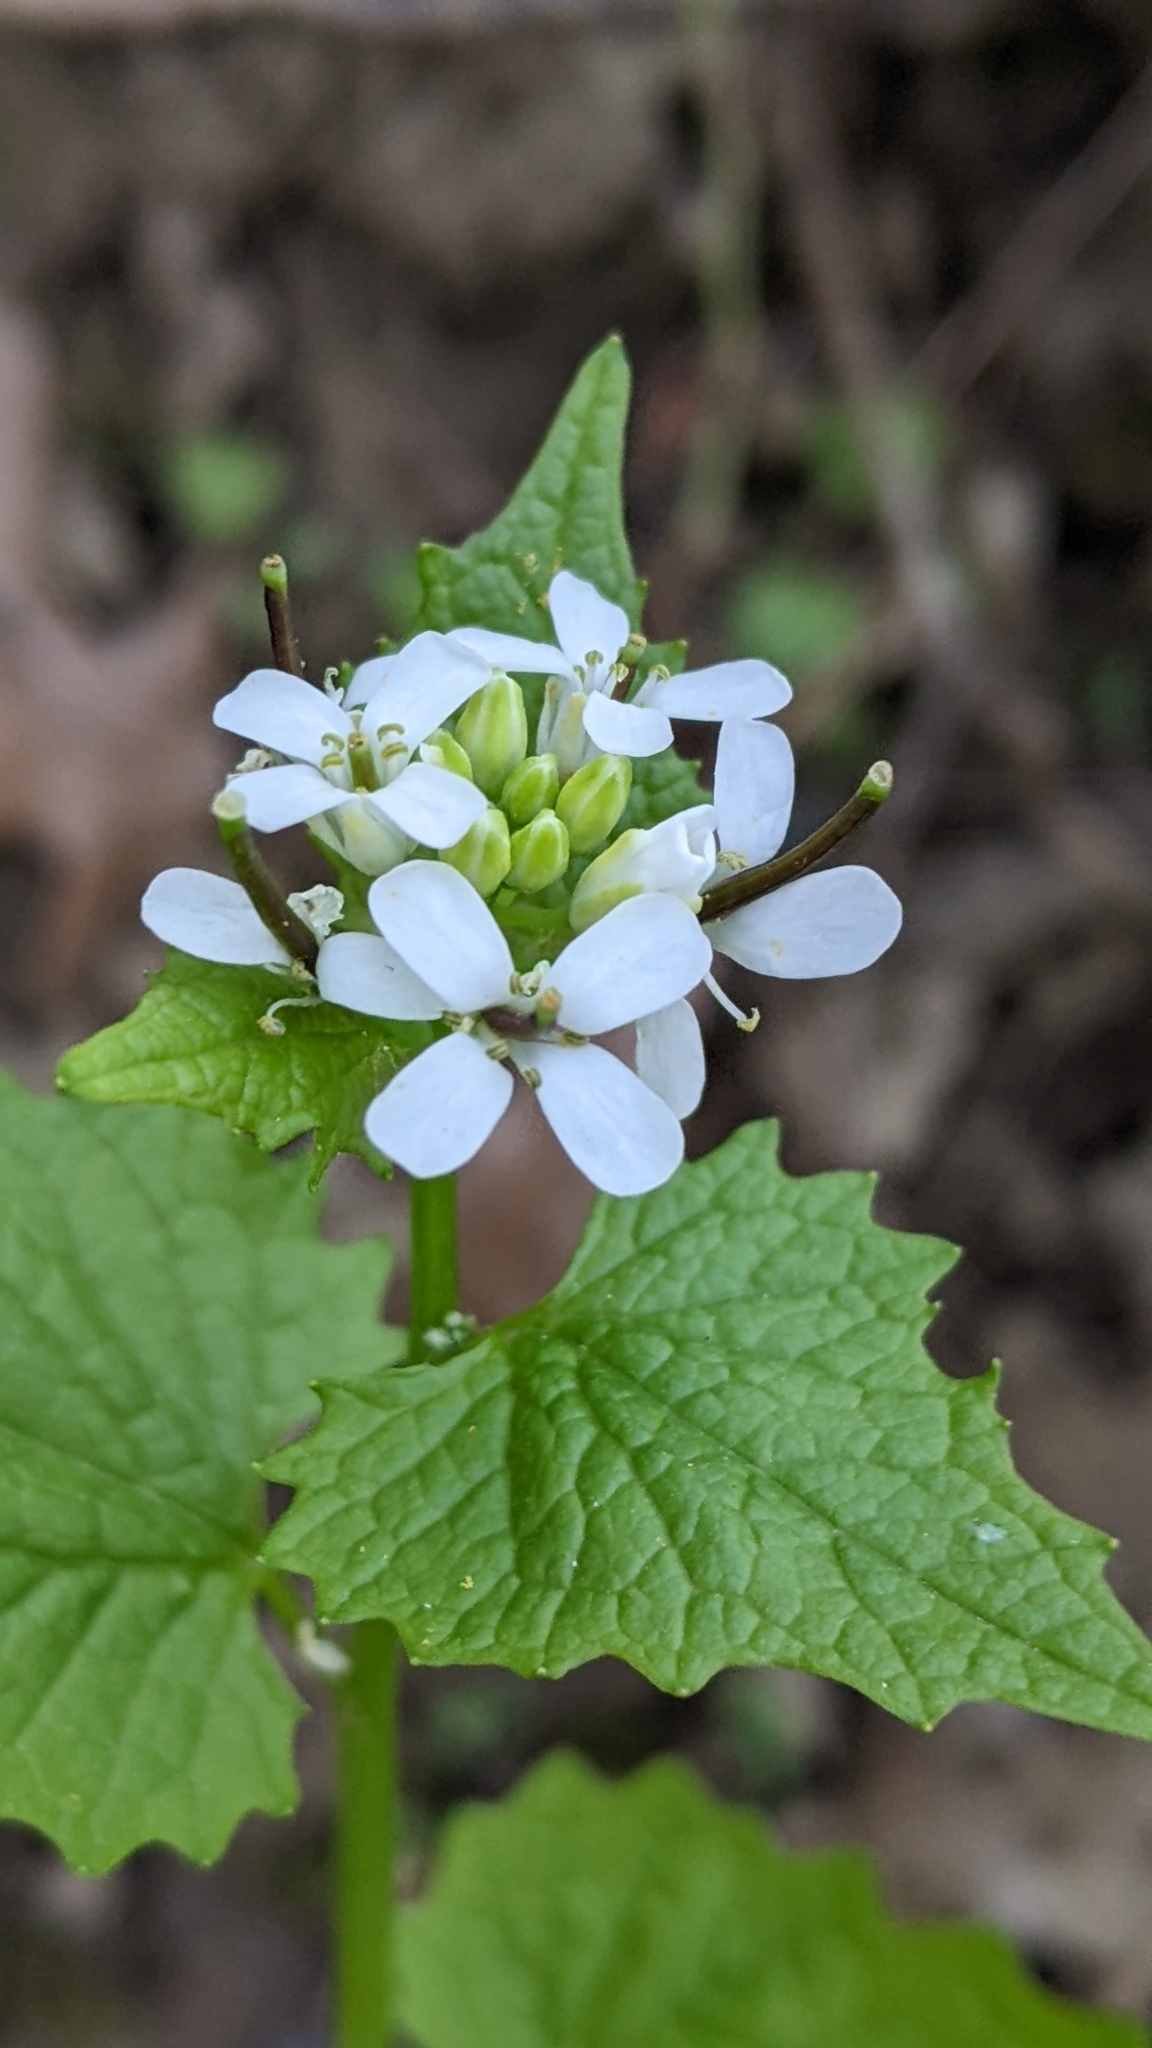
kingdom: Plantae
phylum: Tracheophyta
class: Magnoliopsida
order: Brassicales
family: Brassicaceae
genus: Alliaria
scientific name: Alliaria petiolata
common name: Garlic mustard
